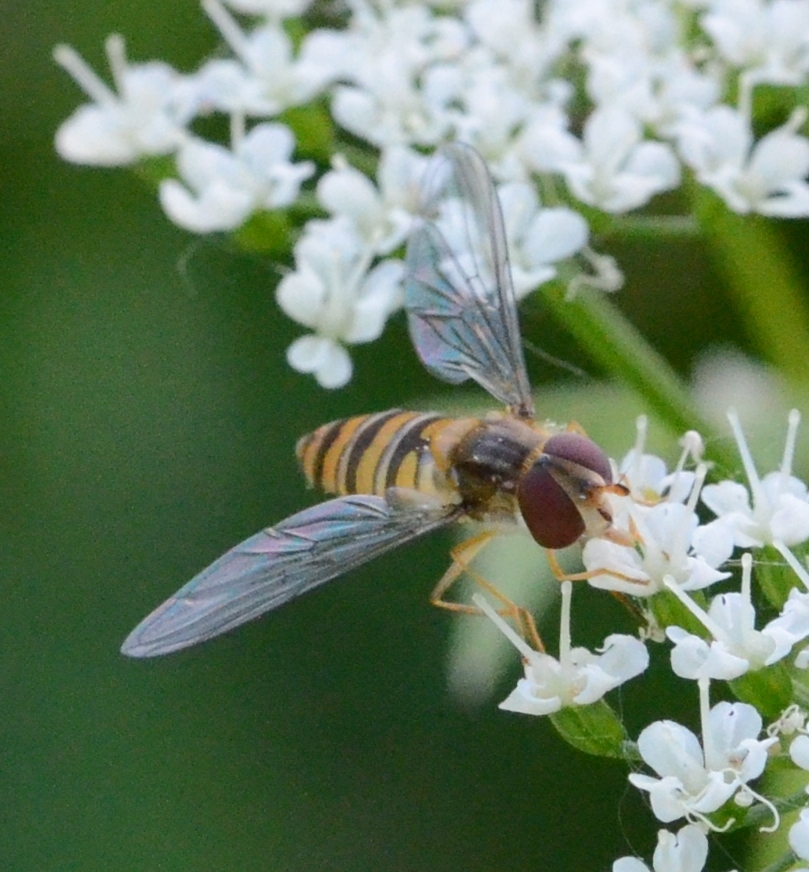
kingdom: Animalia
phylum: Arthropoda
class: Insecta
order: Diptera
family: Syrphidae
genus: Episyrphus
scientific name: Episyrphus balteatus
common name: Marmalade hoverfly
